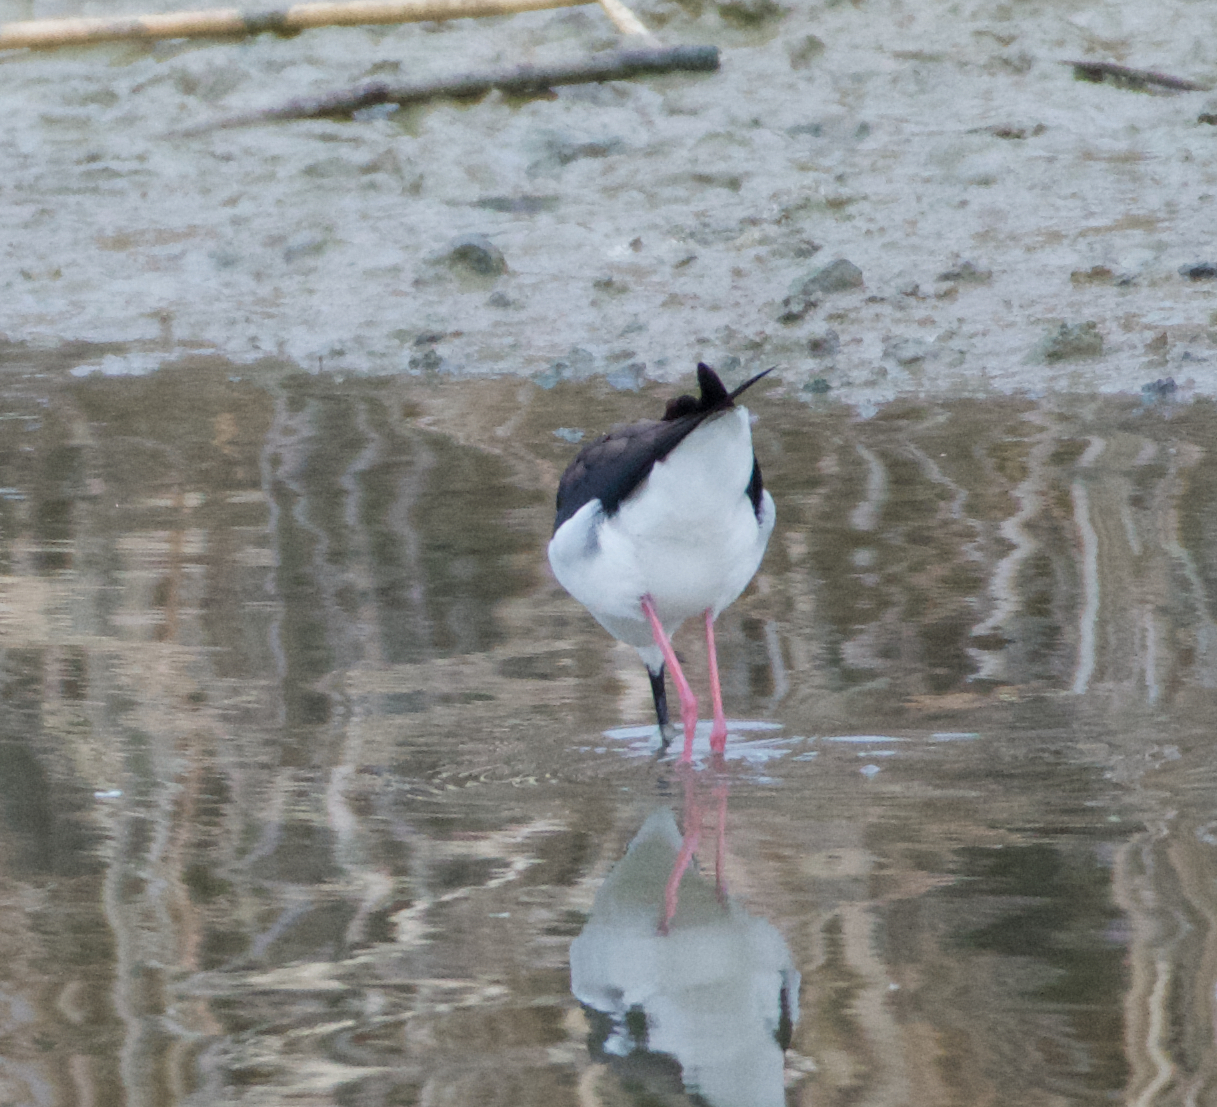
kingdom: Animalia
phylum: Chordata
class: Aves
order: Charadriiformes
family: Recurvirostridae
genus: Himantopus
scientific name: Himantopus mexicanus
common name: Black-necked stilt
